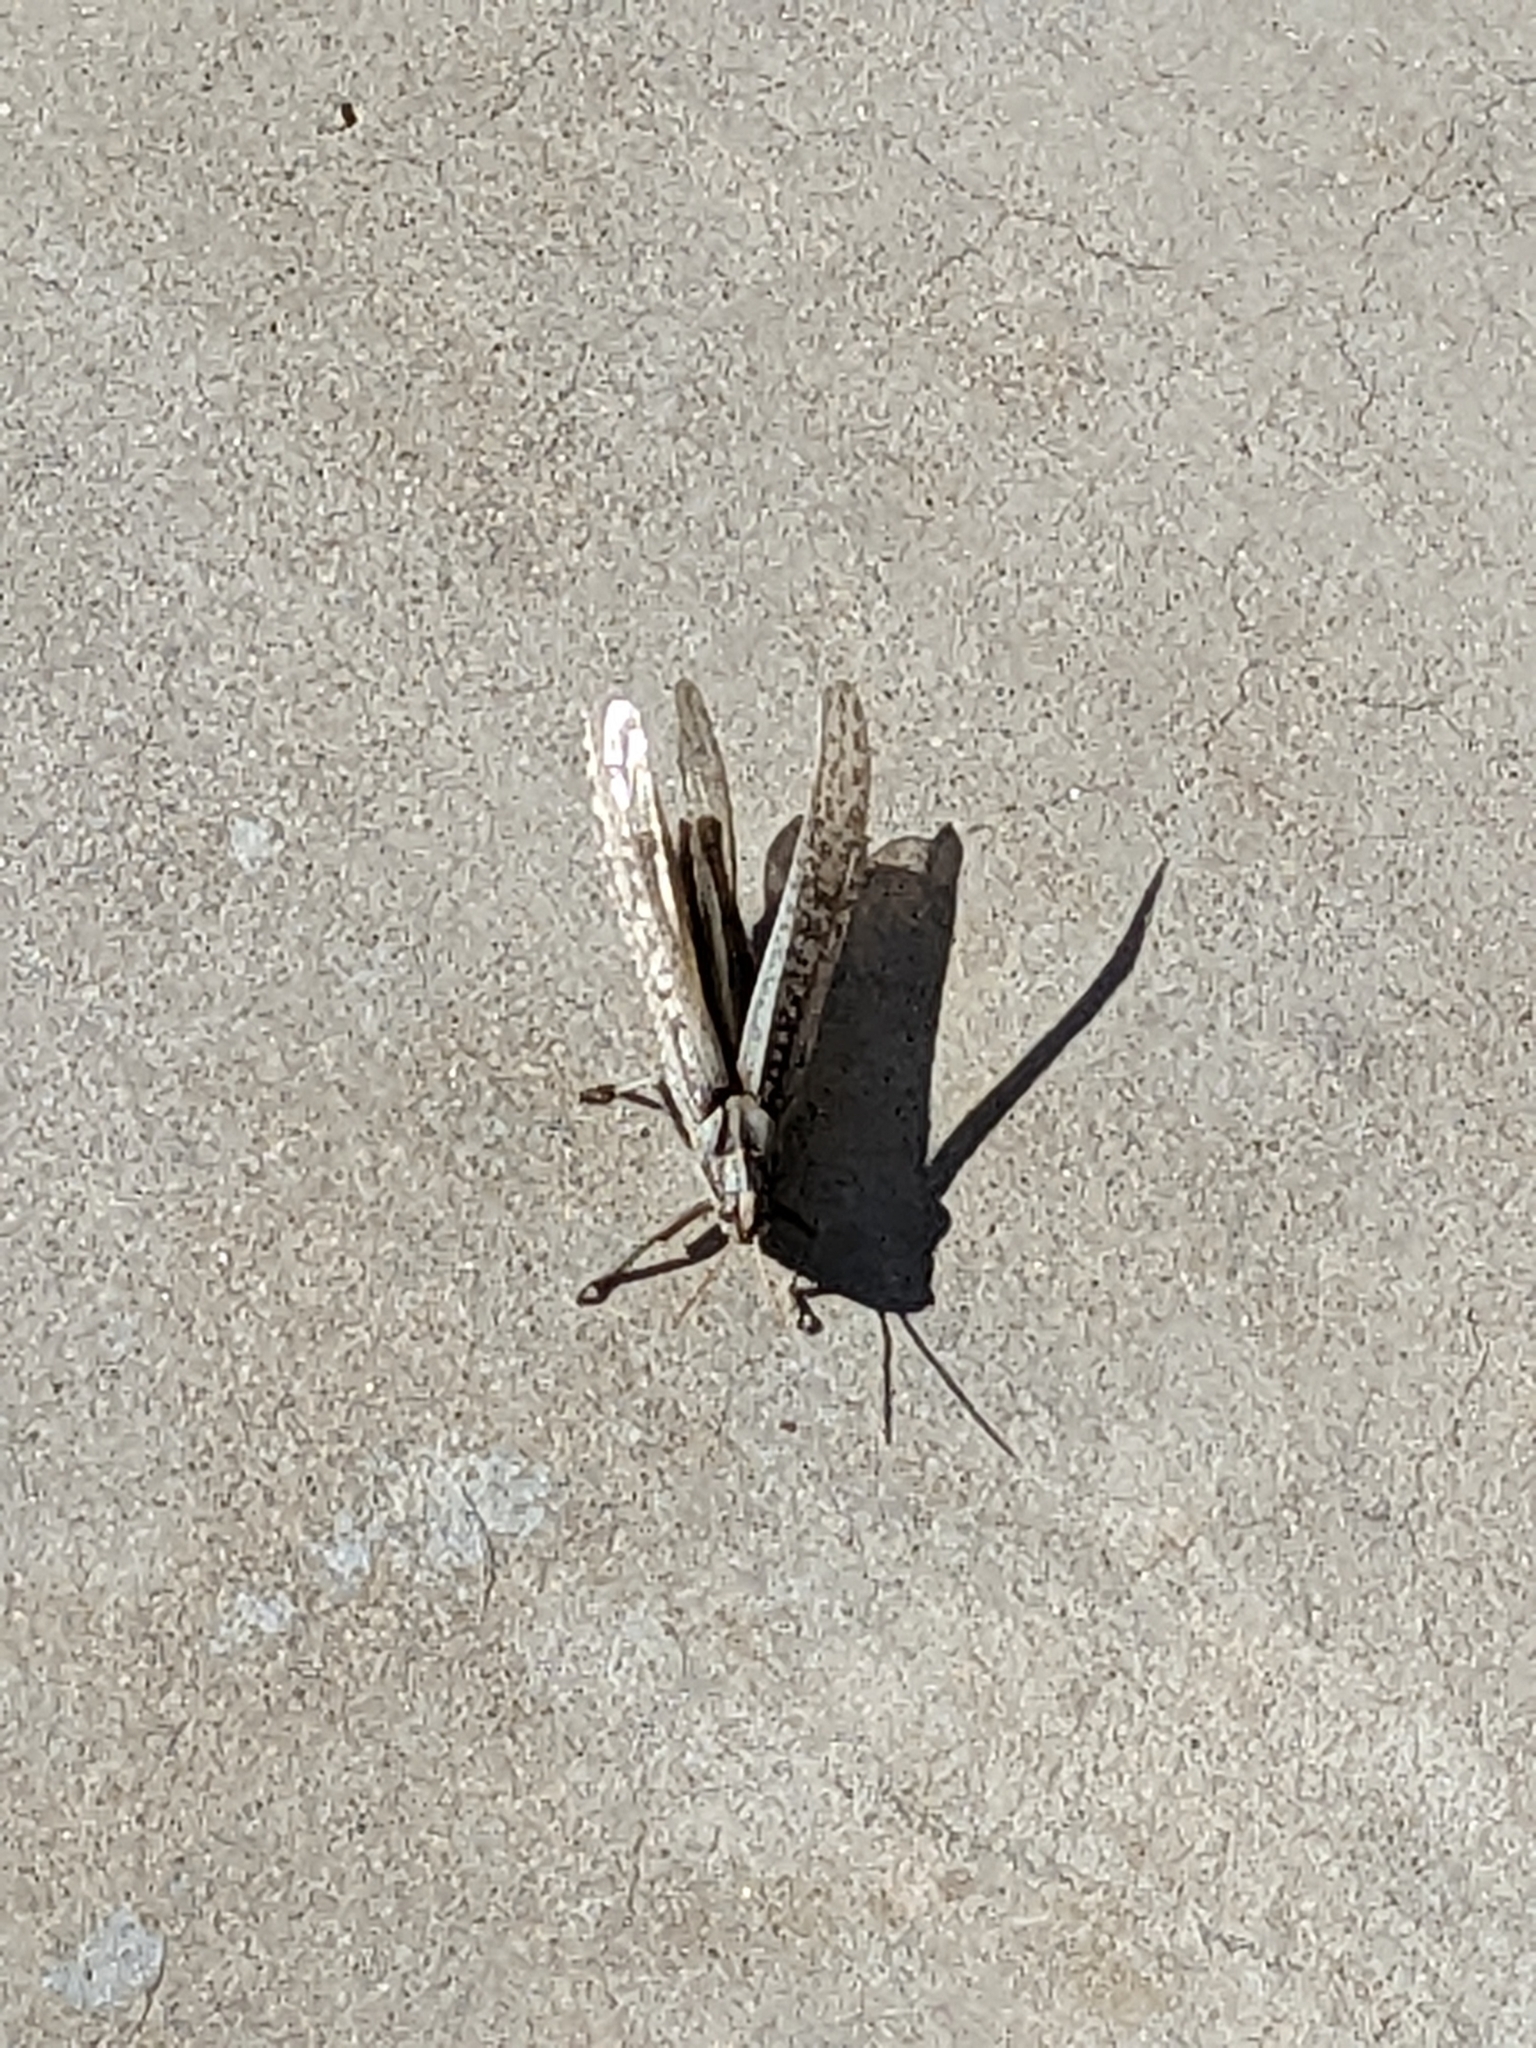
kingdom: Animalia
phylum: Arthropoda
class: Insecta
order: Orthoptera
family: Acrididae
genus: Schistocerca
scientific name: Schistocerca nitens
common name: Vagrant grasshopper
